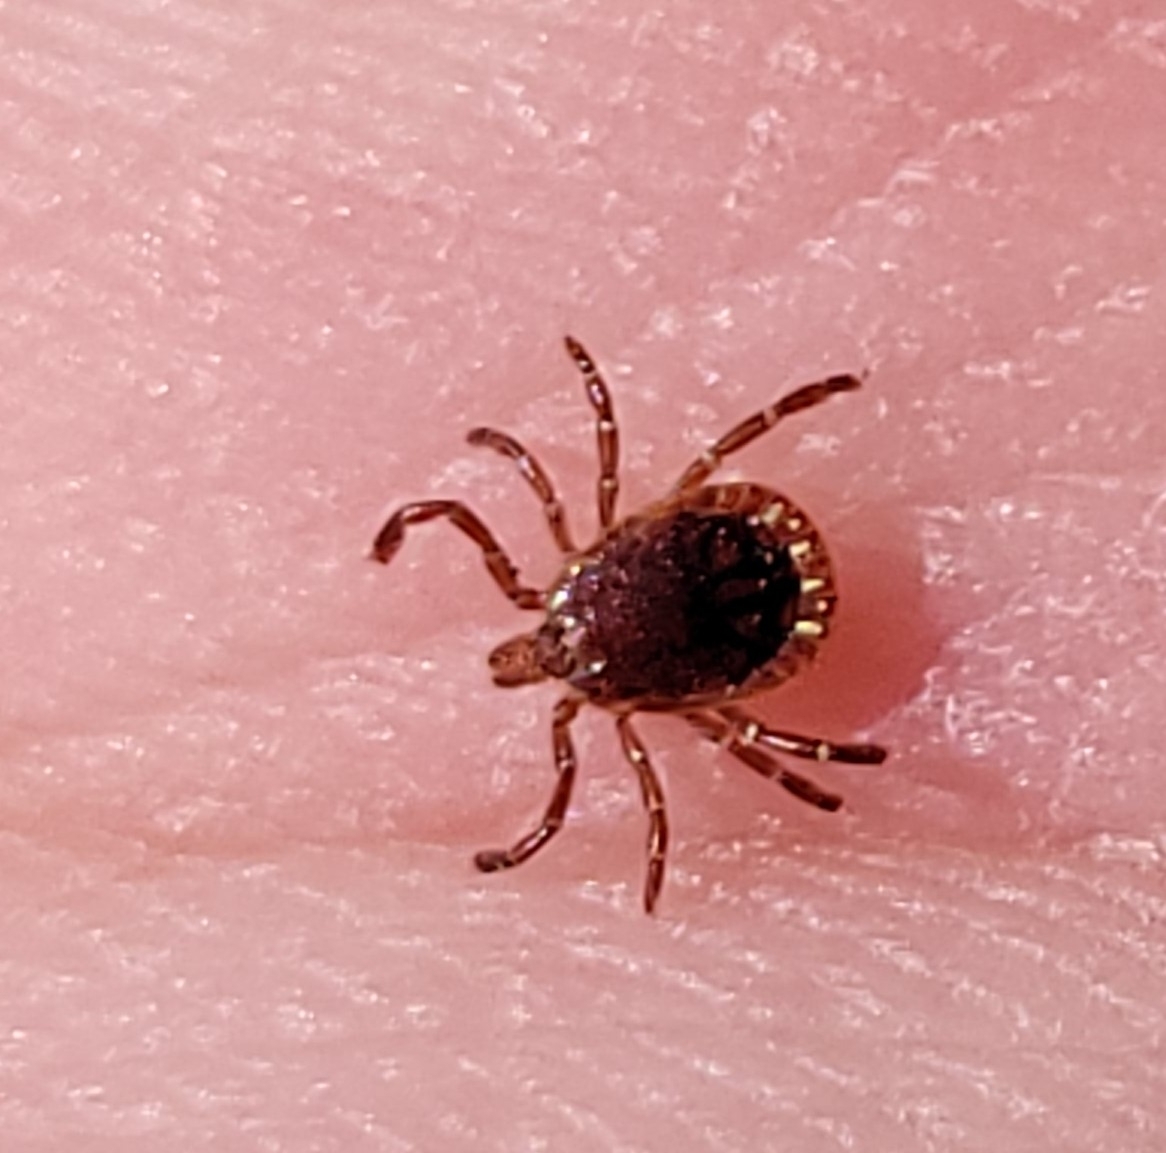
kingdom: Animalia
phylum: Arthropoda
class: Arachnida
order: Ixodida
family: Ixodidae
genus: Amblyomma
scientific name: Amblyomma americanum
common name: Lone star tick
